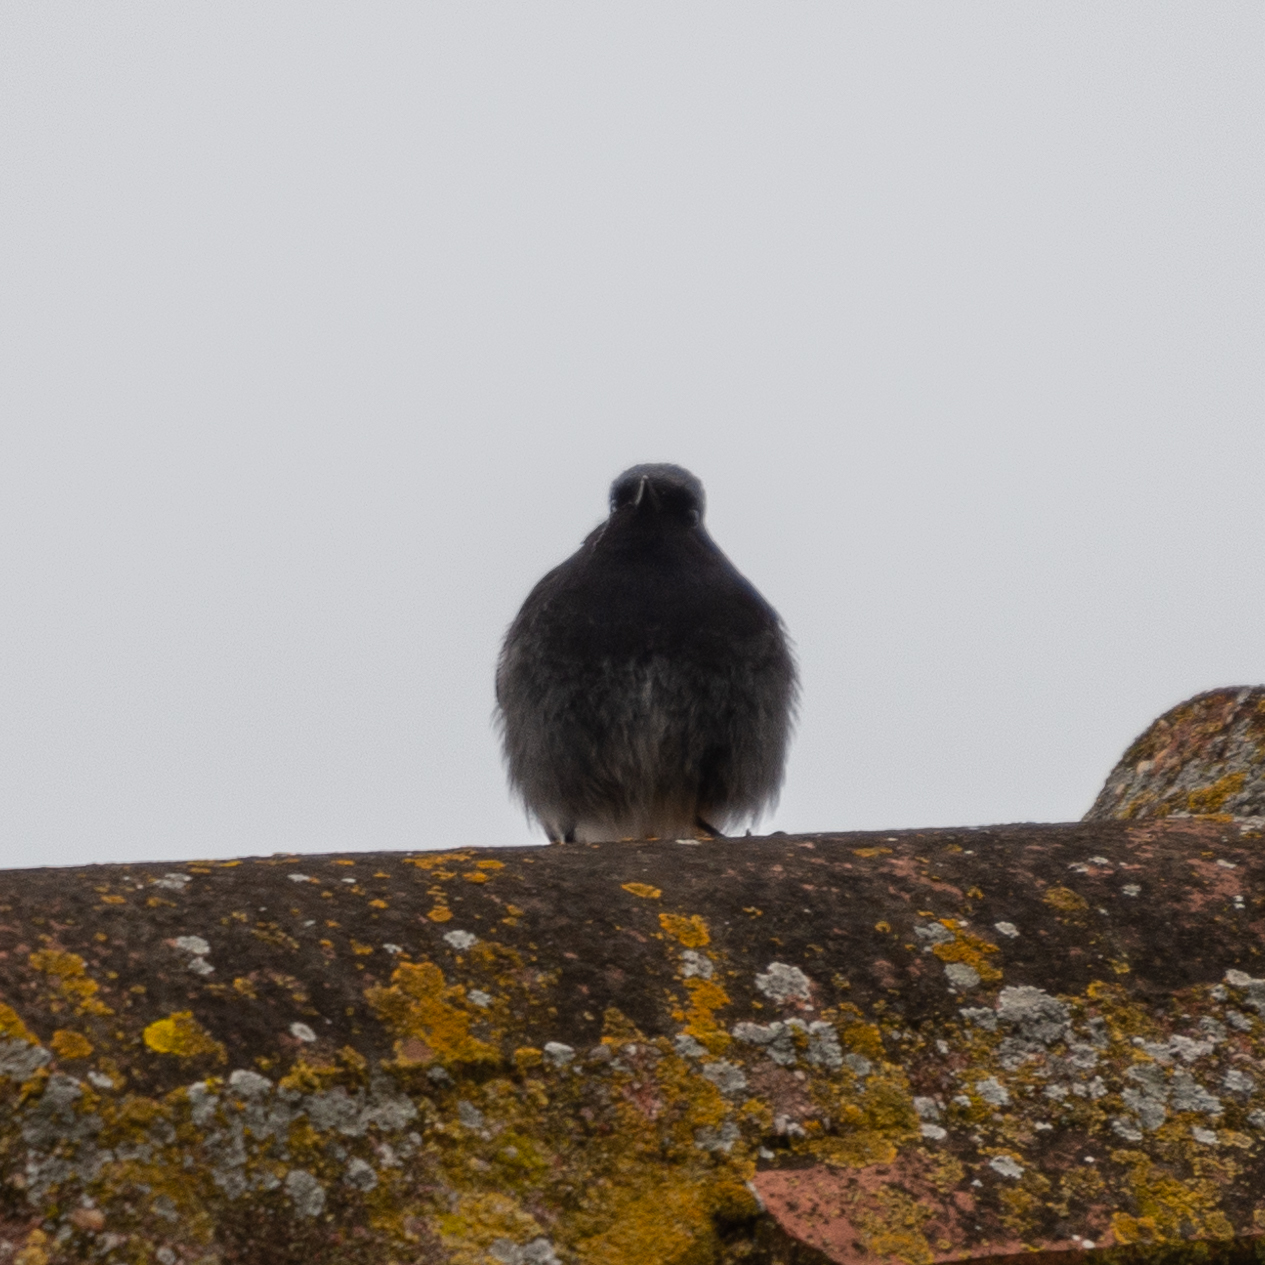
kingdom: Animalia
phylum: Chordata
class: Aves
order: Passeriformes
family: Muscicapidae
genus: Phoenicurus
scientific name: Phoenicurus ochruros
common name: Black redstart
